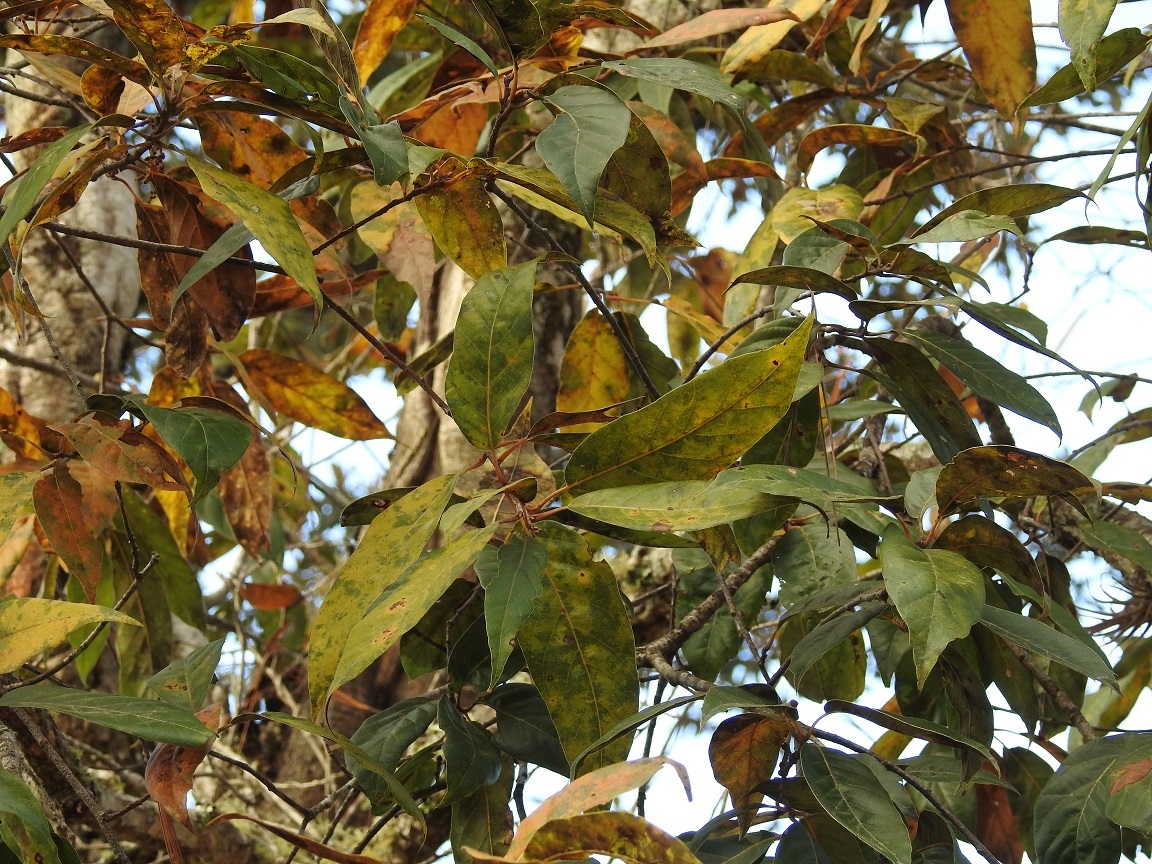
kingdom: Plantae
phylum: Tracheophyta
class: Magnoliopsida
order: Fagales
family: Fagaceae
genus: Quercus
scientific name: Quercus acutifolia
